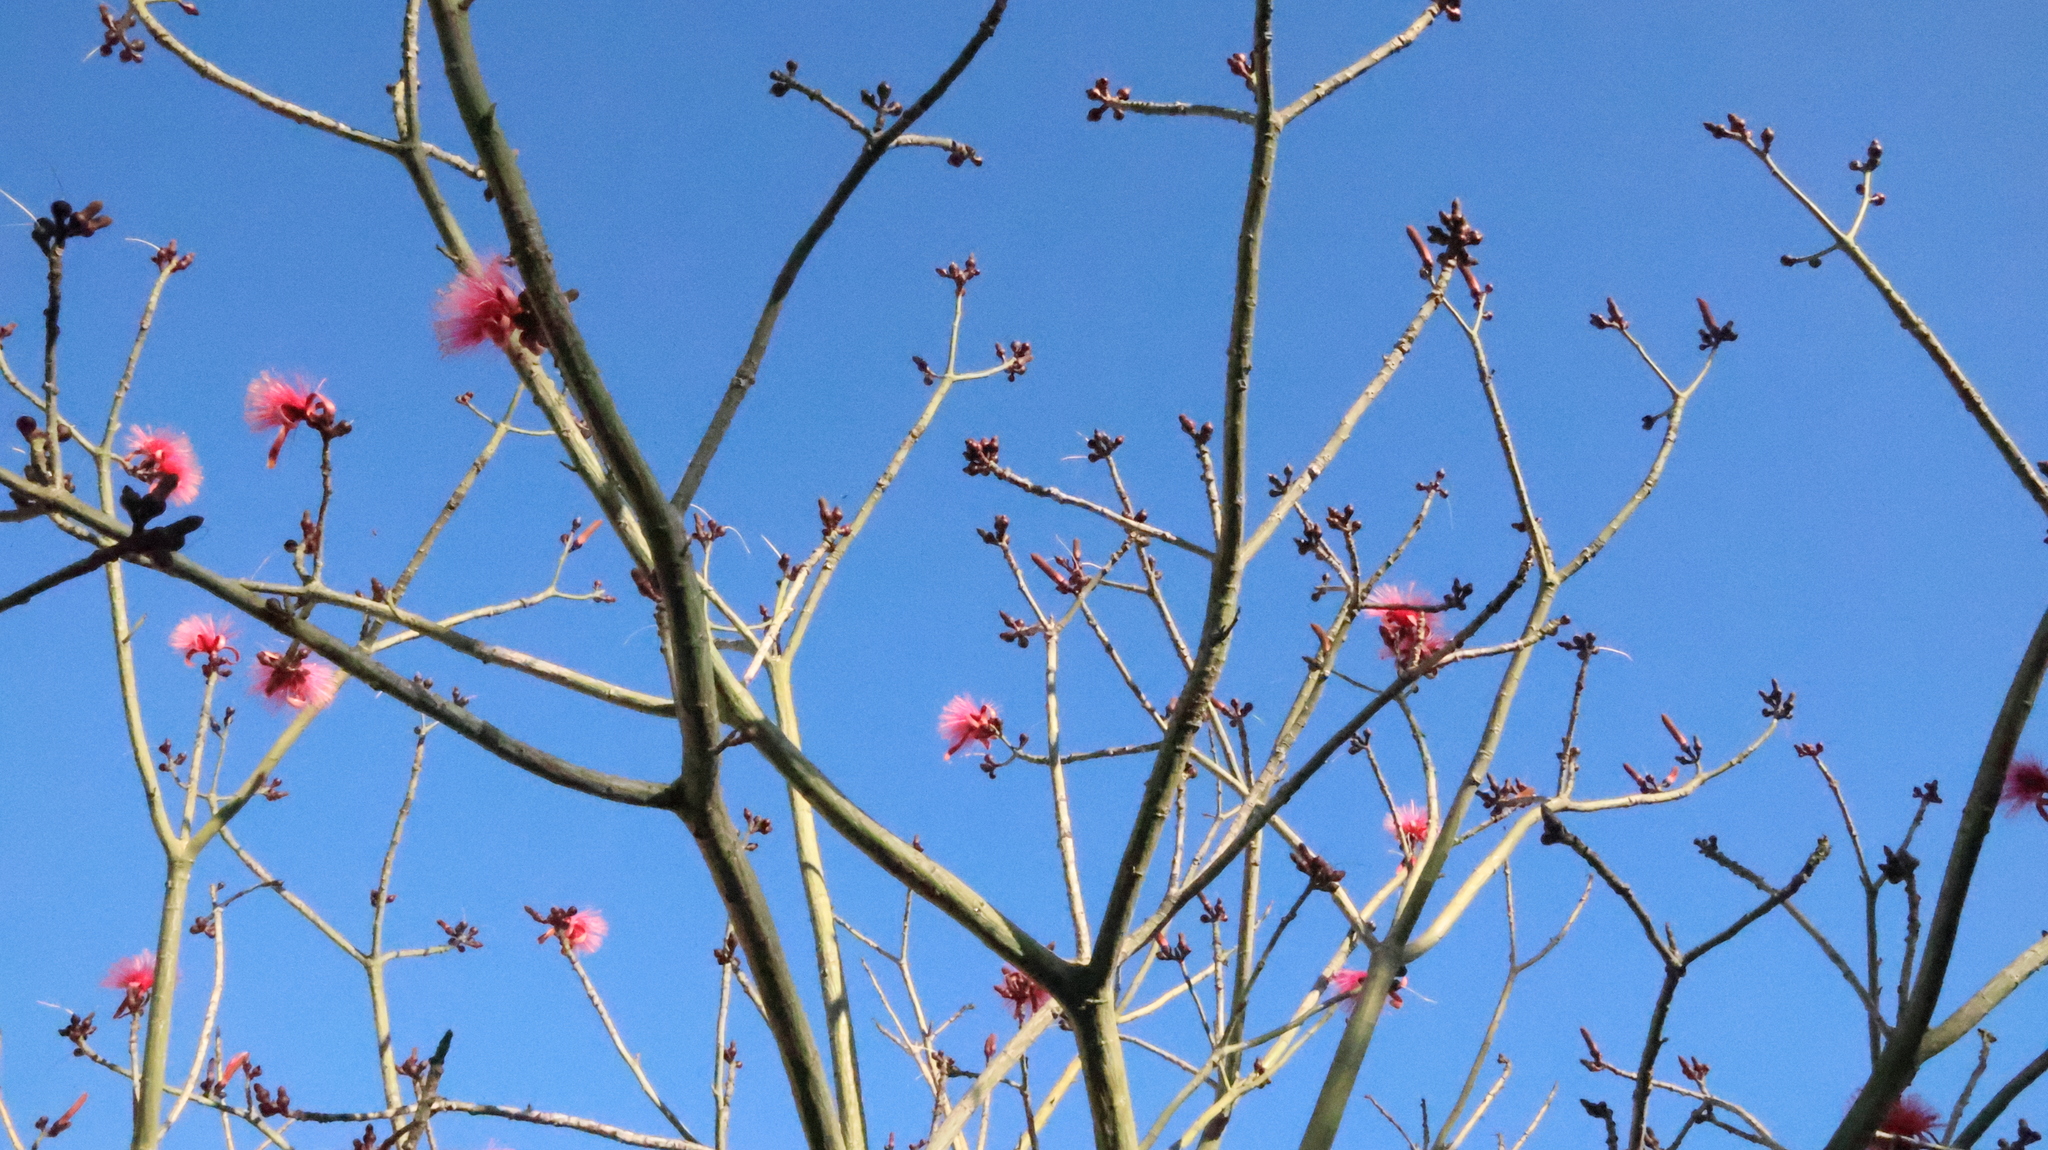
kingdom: Plantae
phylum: Tracheophyta
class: Magnoliopsida
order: Malvales
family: Malvaceae
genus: Pseudobombax
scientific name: Pseudobombax ellipticum
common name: Shaving-brush-tree
